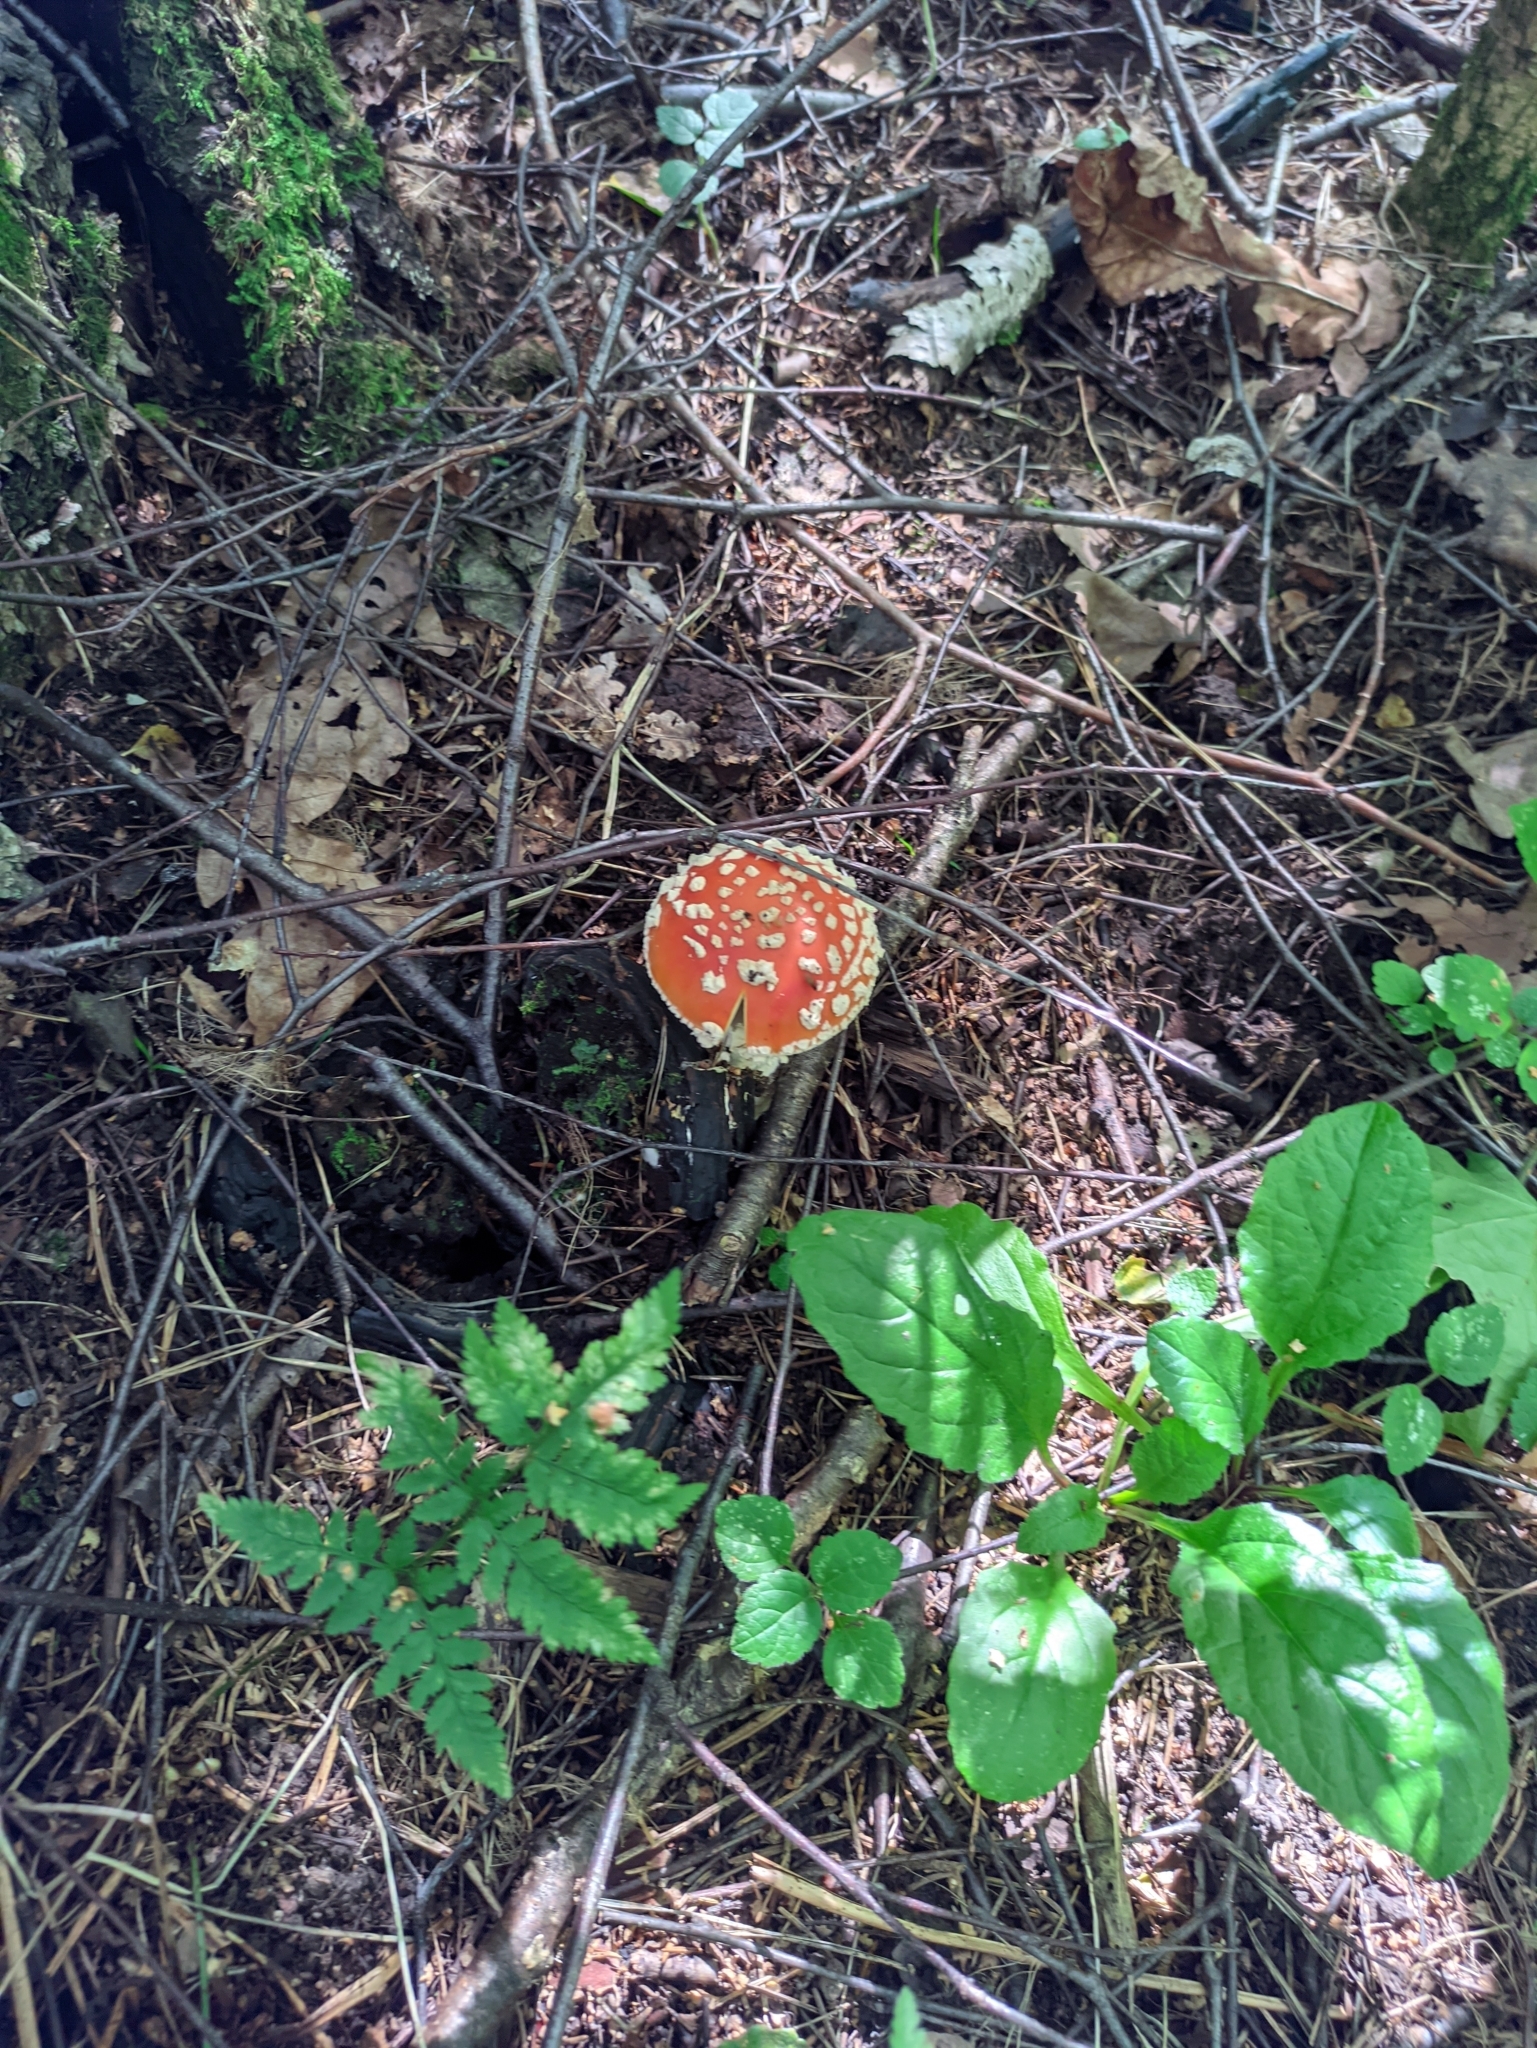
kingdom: Fungi
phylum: Basidiomycota
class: Agaricomycetes
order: Agaricales
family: Amanitaceae
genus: Amanita
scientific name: Amanita muscaria
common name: Fly agaric
